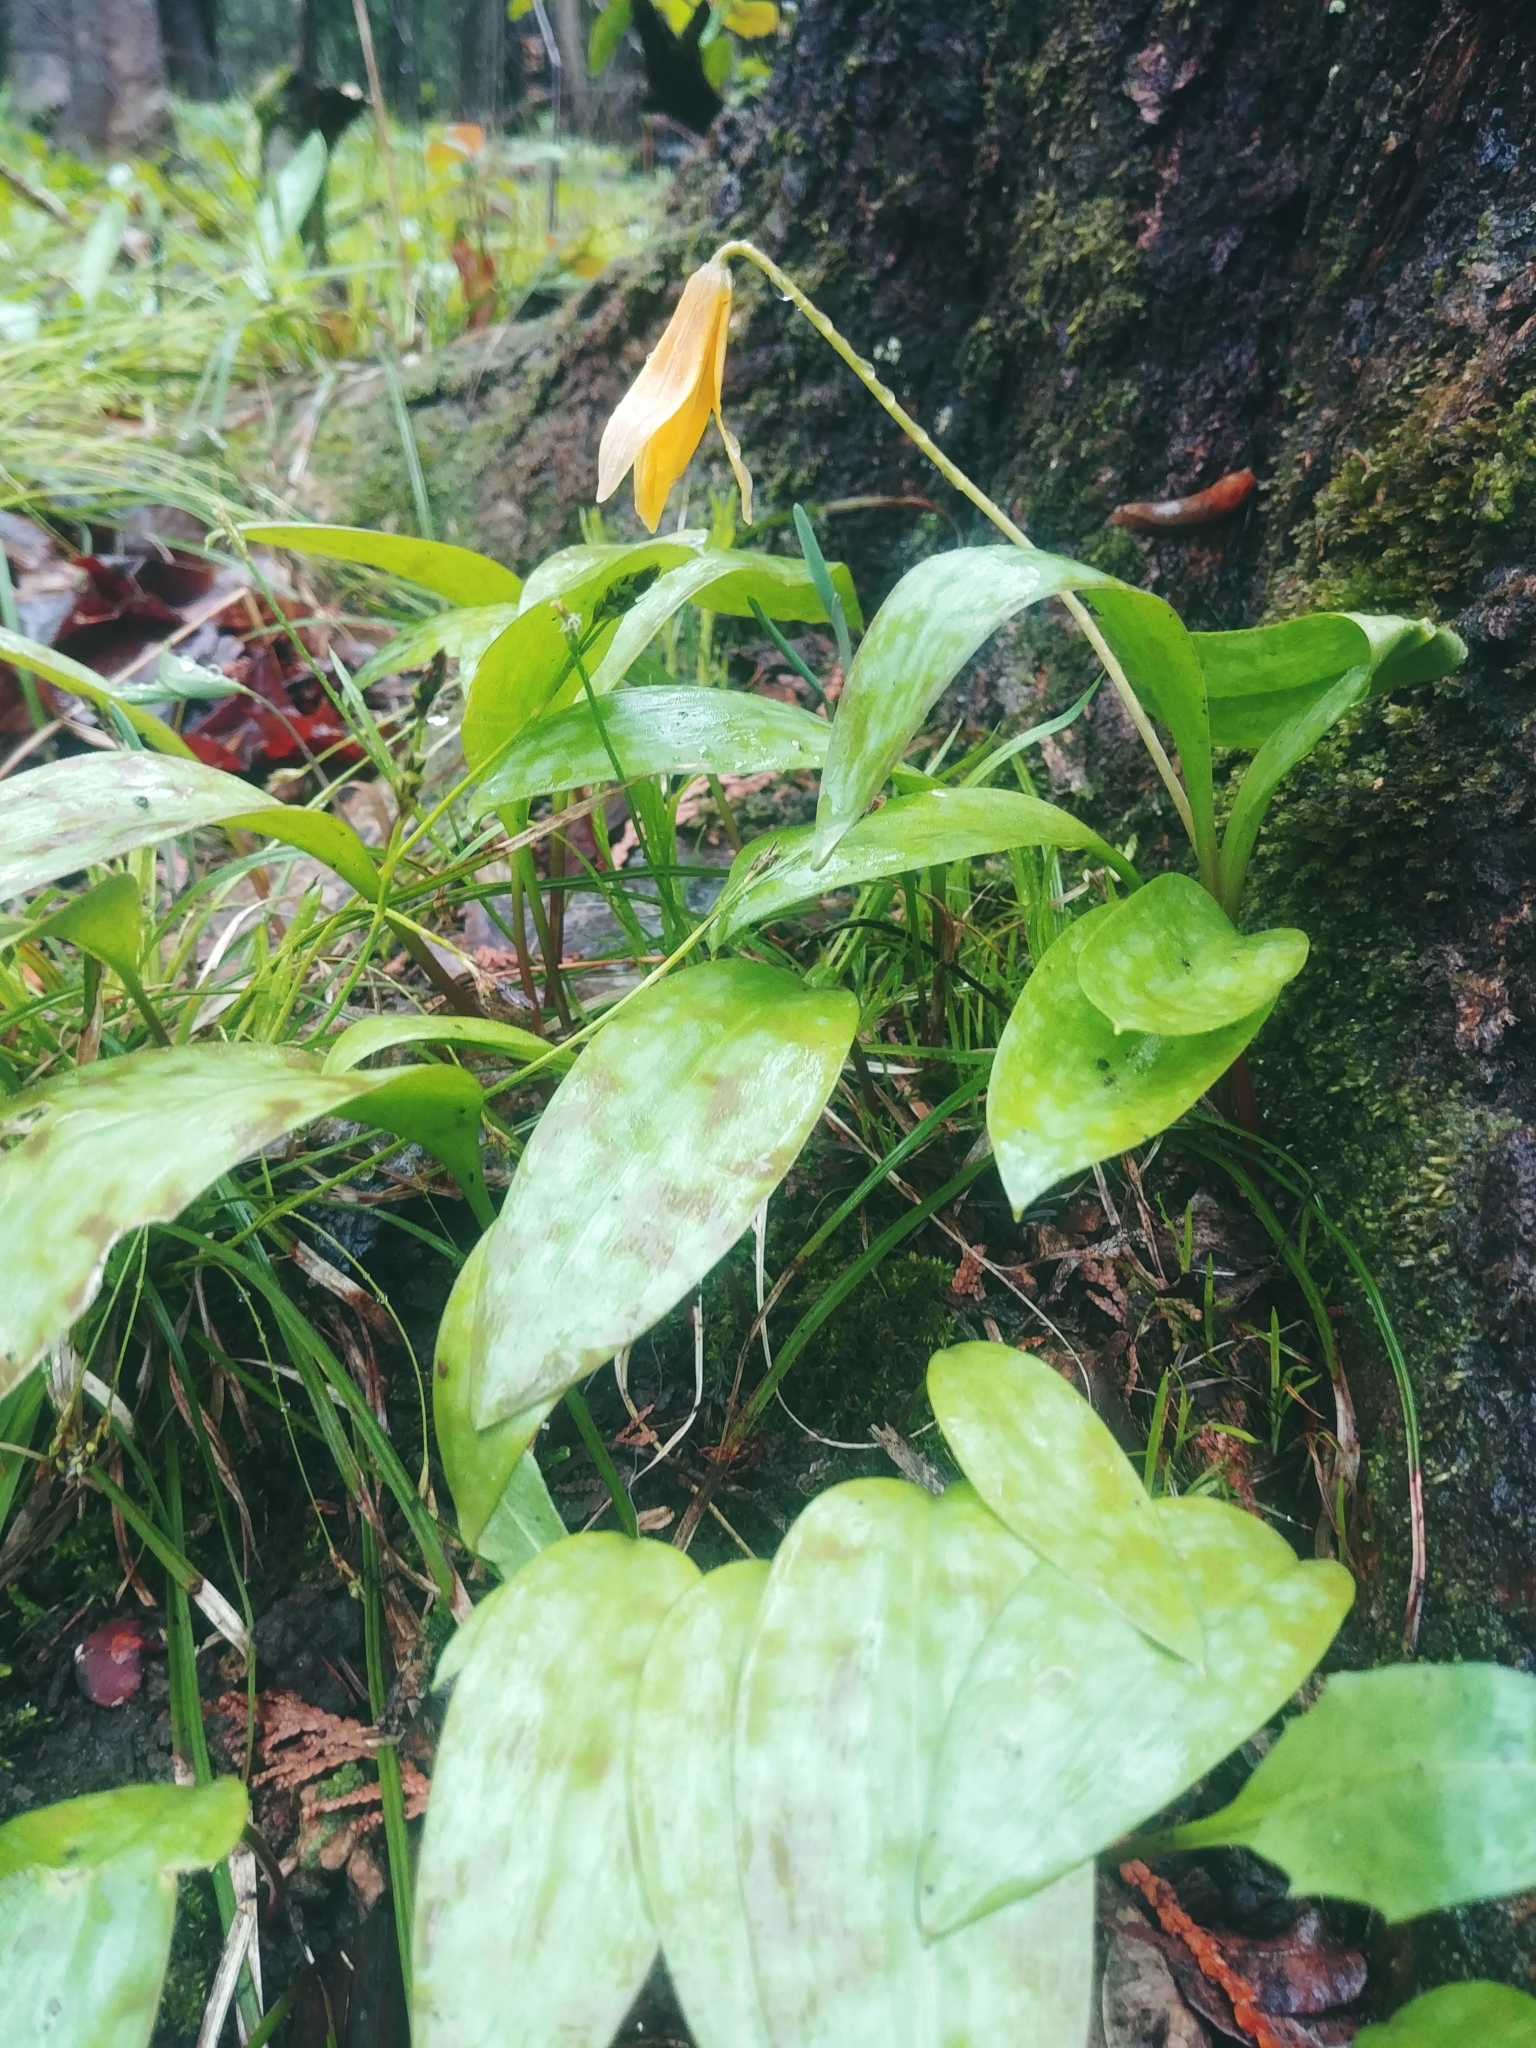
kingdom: Plantae
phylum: Tracheophyta
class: Liliopsida
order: Liliales
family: Liliaceae
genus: Erythronium
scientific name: Erythronium americanum
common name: Yellow adder's-tongue
